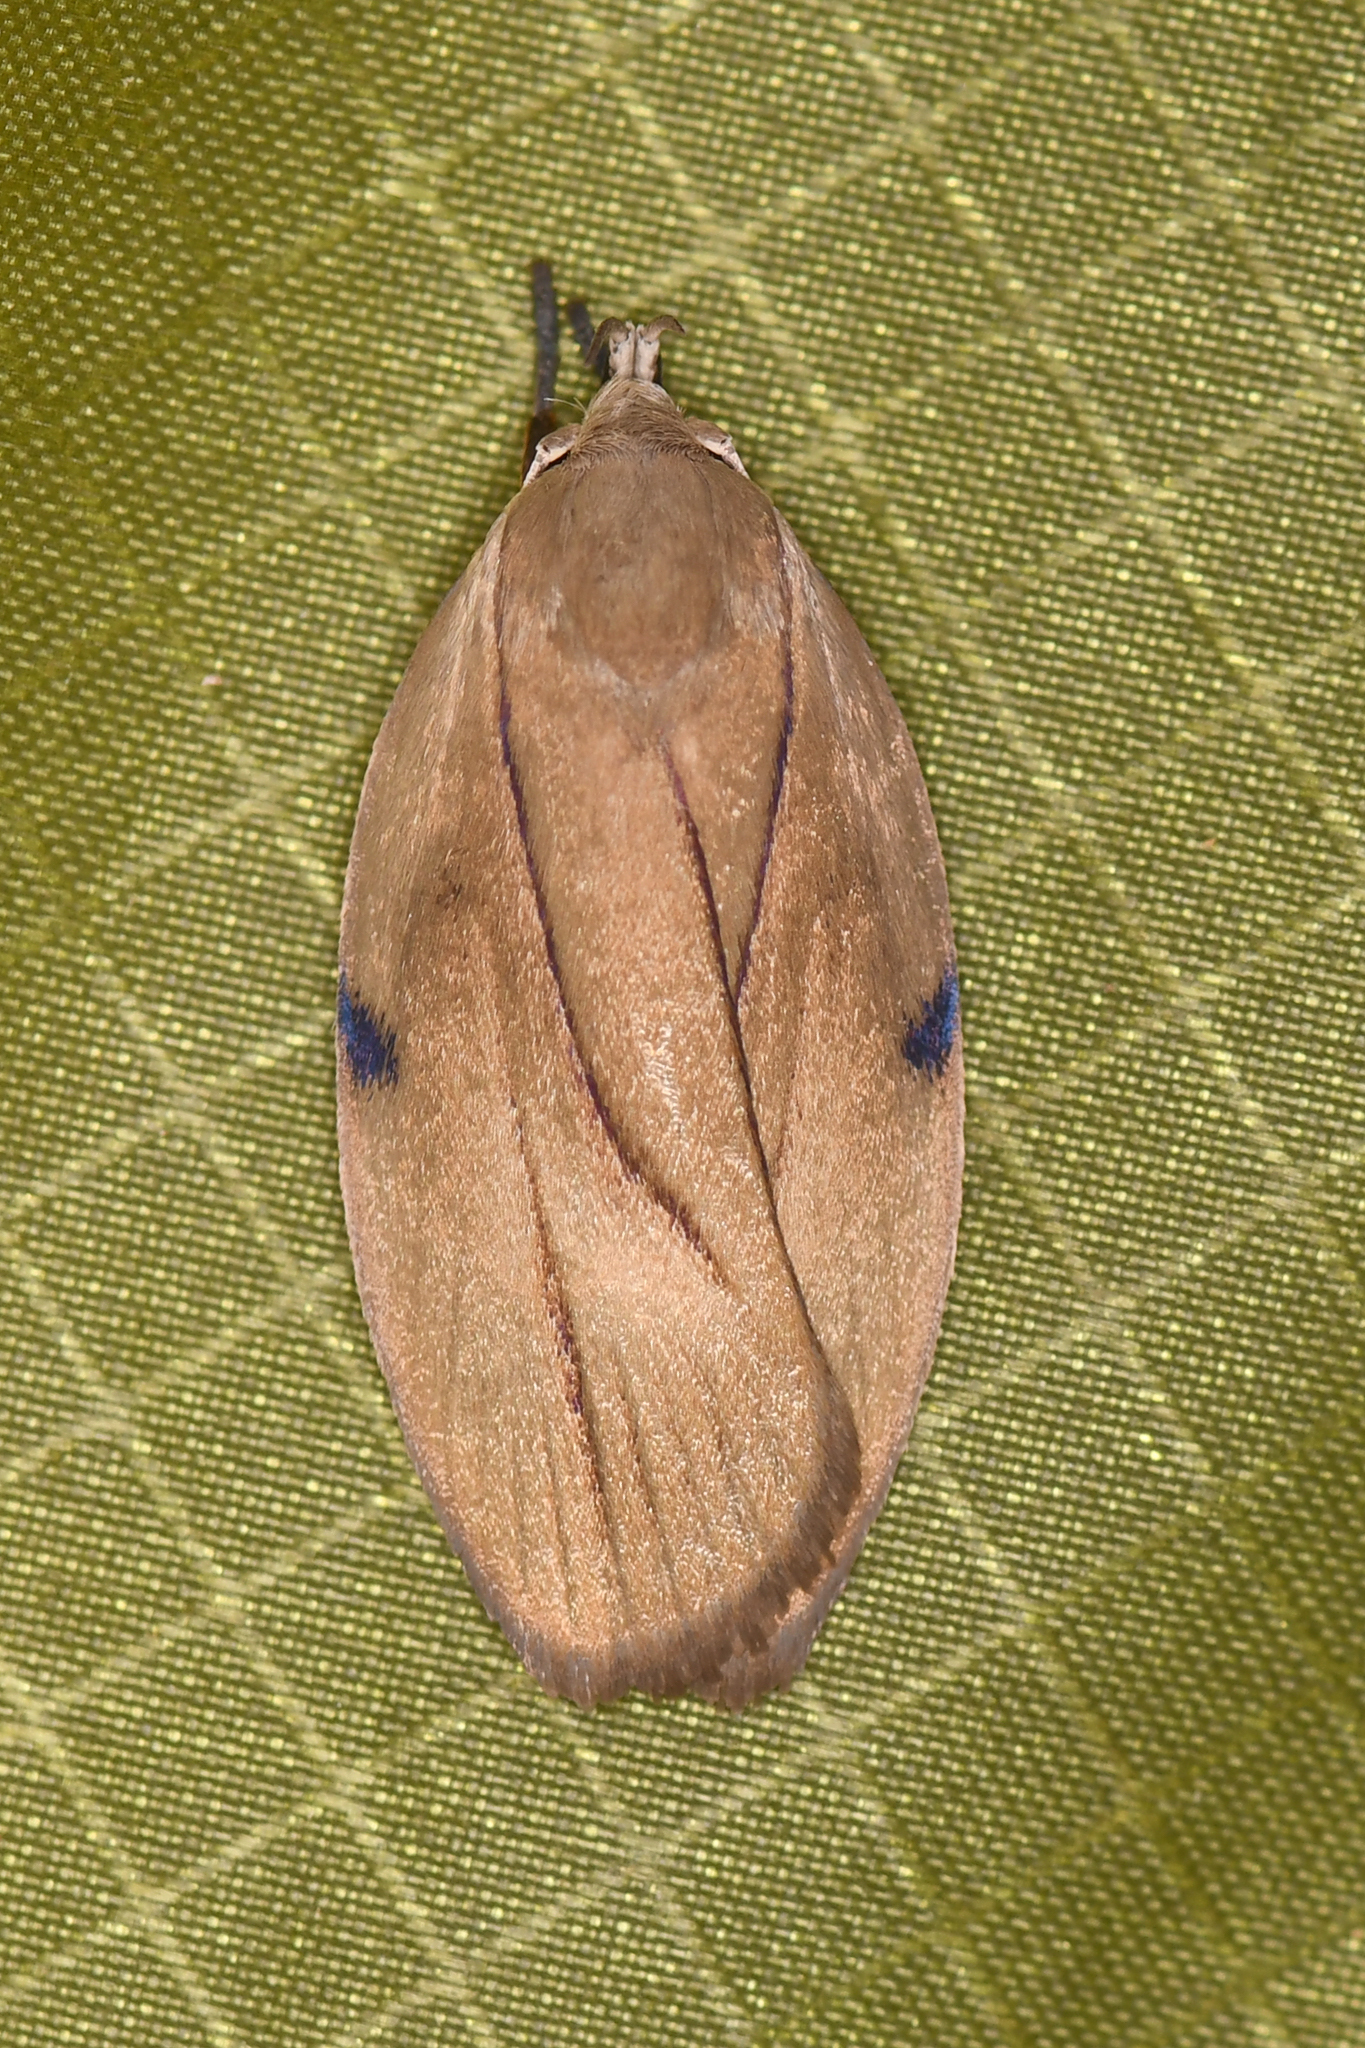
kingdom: Animalia
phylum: Arthropoda
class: Insecta
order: Lepidoptera
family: Depressariidae
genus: Stenoma
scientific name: Stenoma exarata
